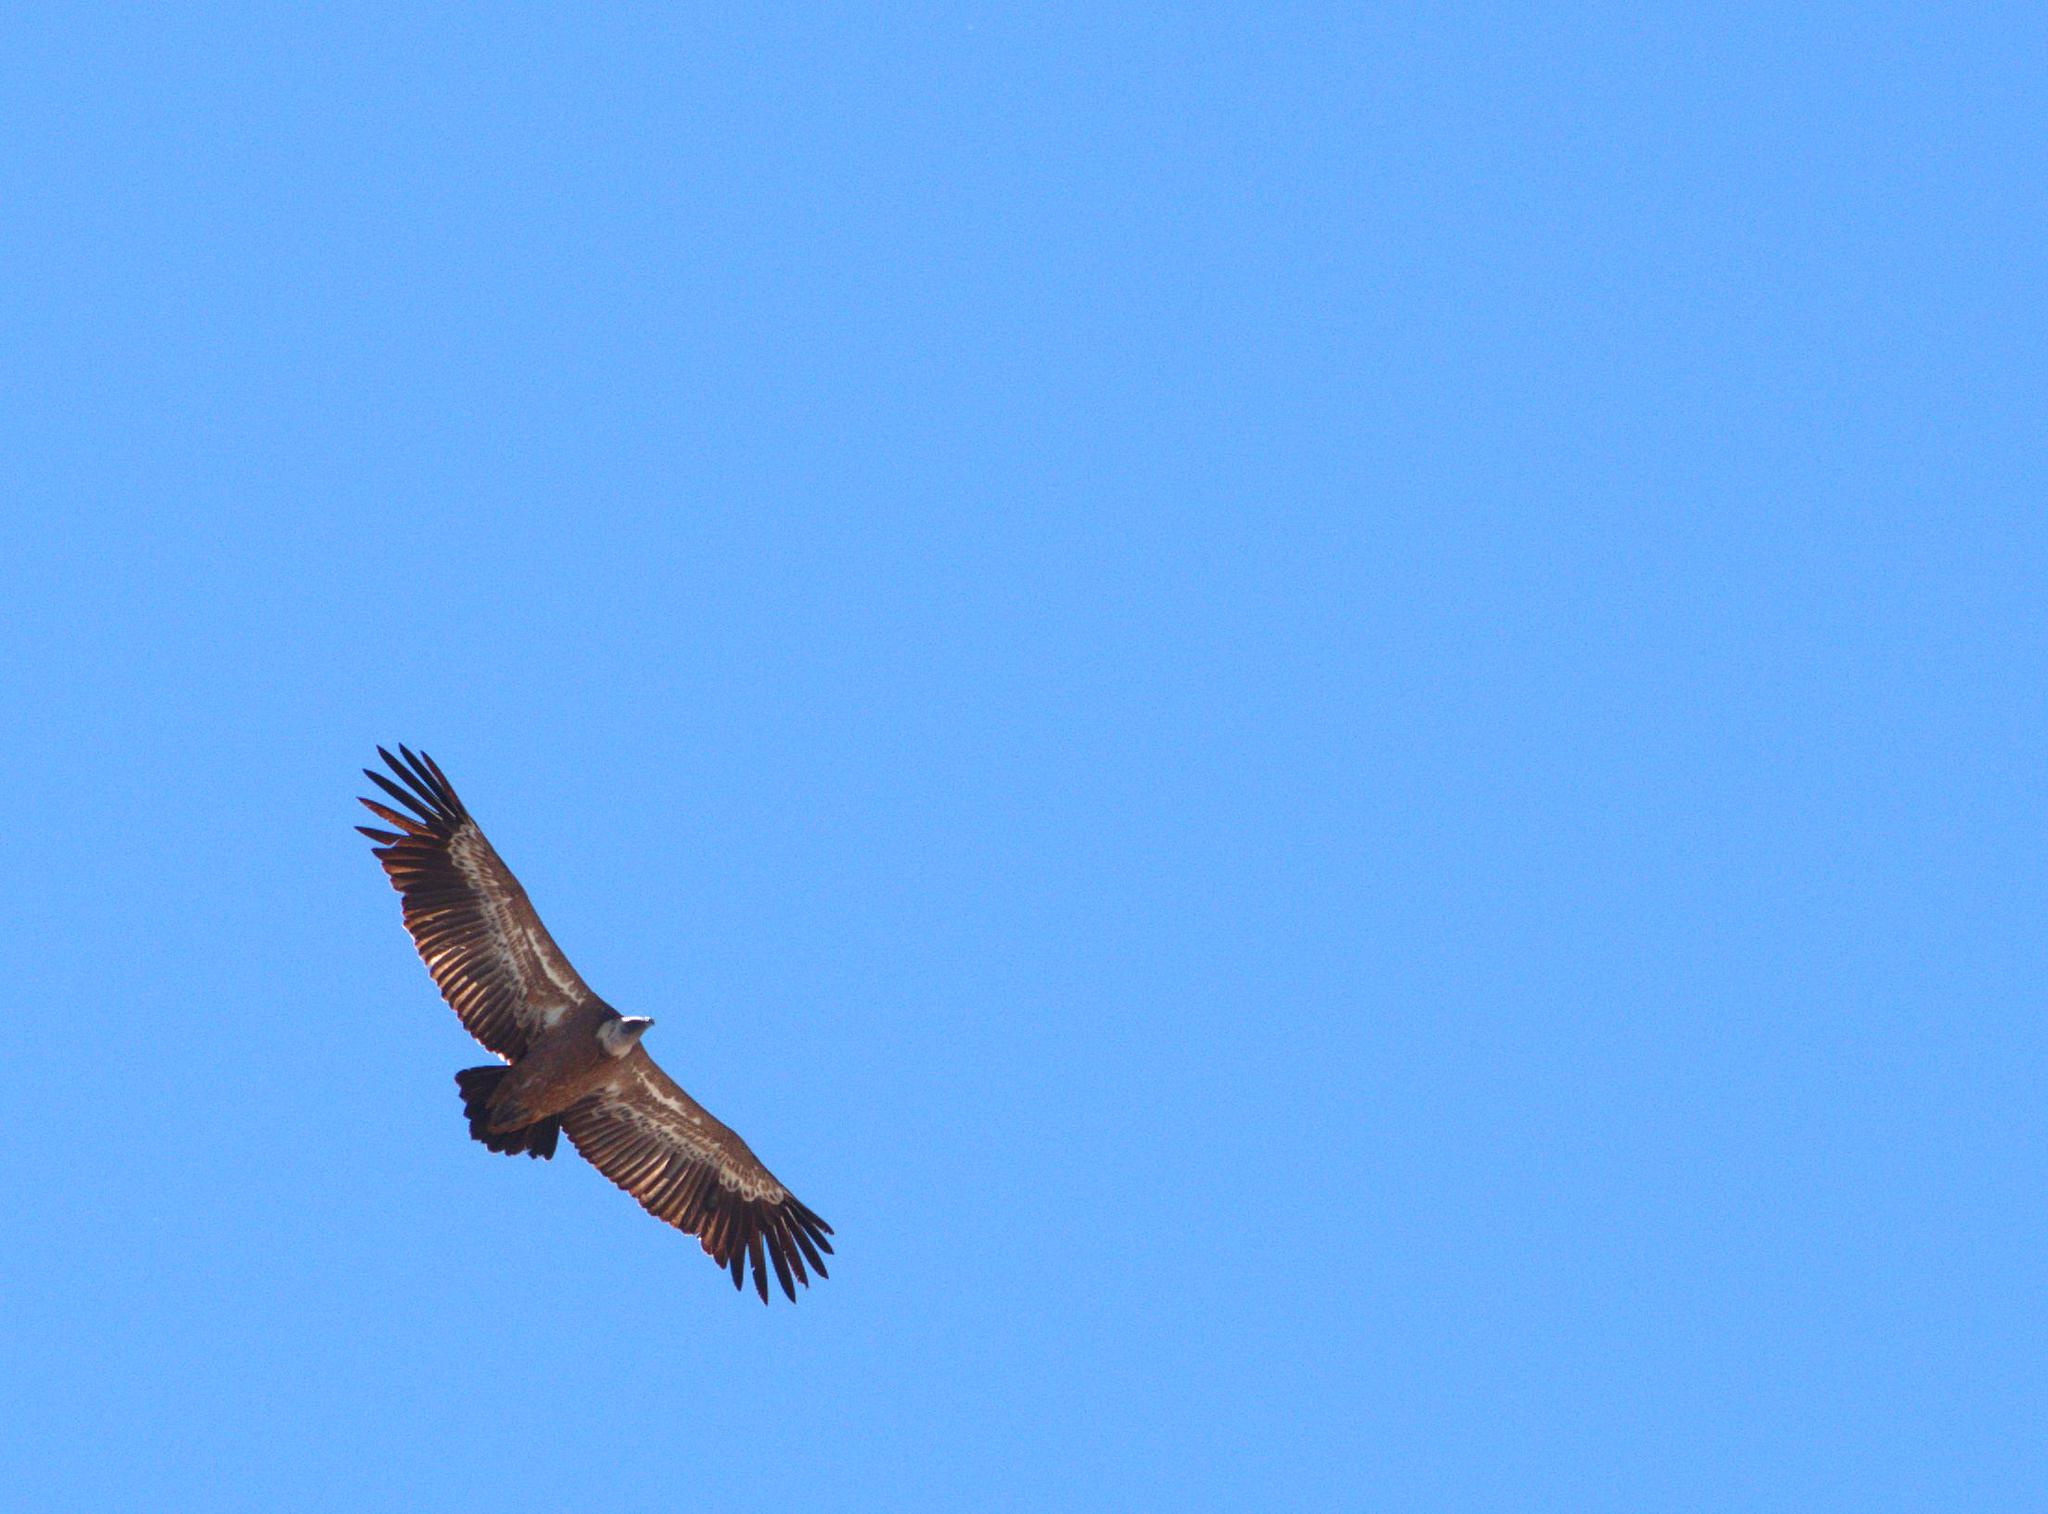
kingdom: Animalia
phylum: Chordata
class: Aves
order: Accipitriformes
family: Accipitridae
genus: Gyps
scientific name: Gyps fulvus
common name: Griffon vulture
